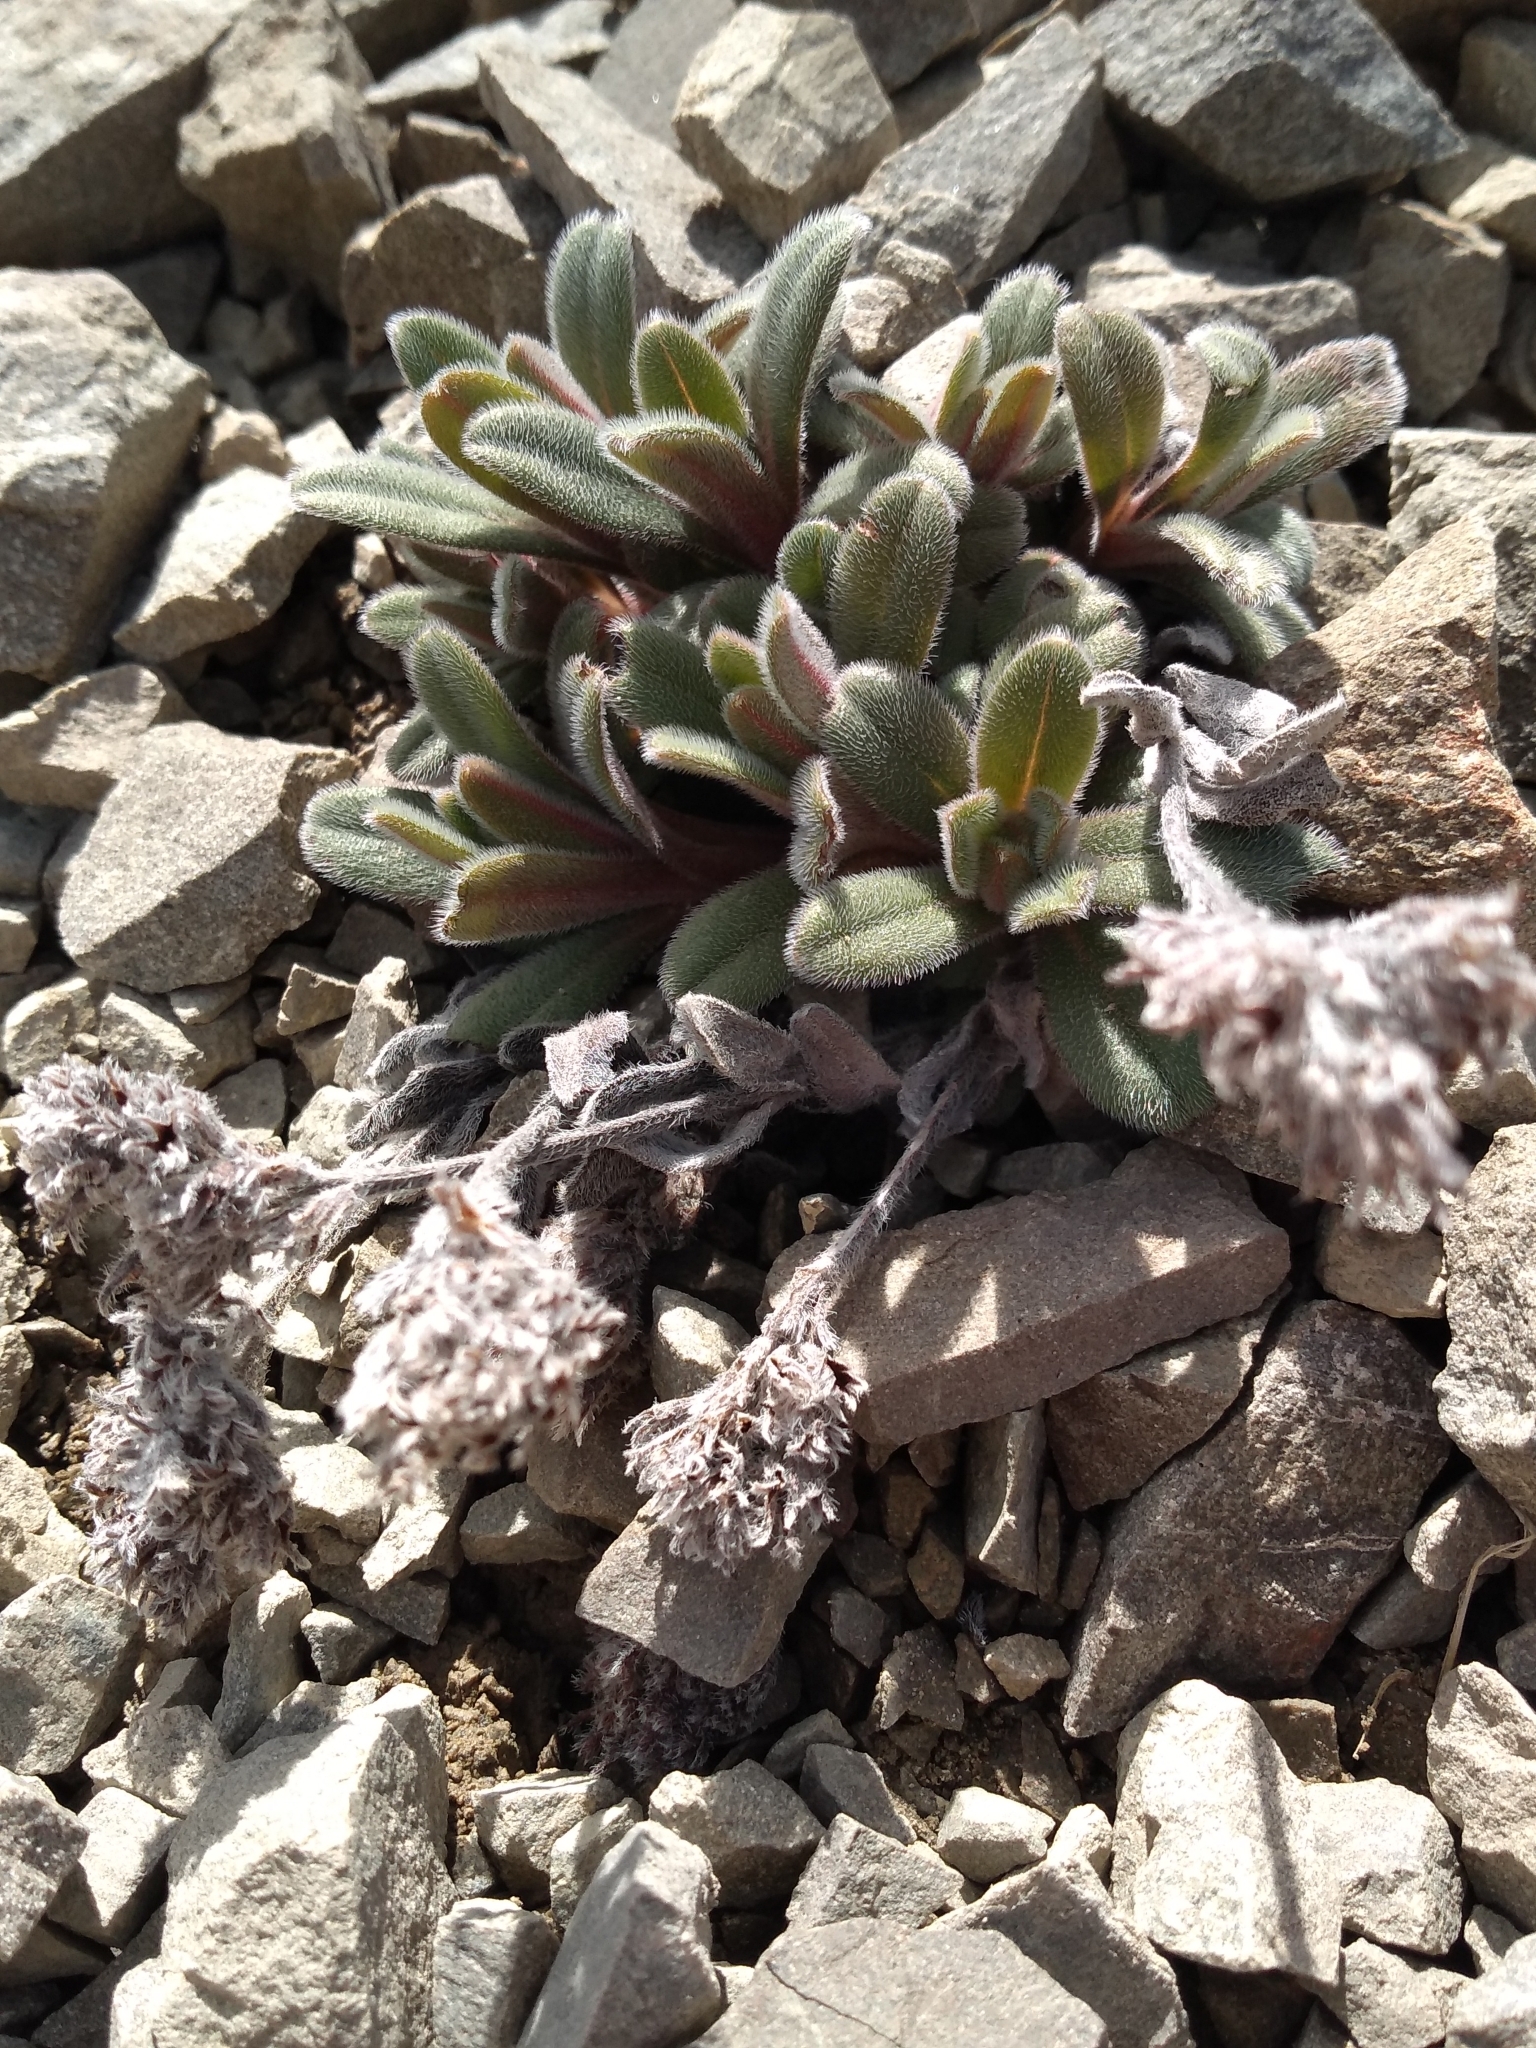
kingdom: Plantae
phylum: Tracheophyta
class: Magnoliopsida
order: Boraginales
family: Boraginaceae
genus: Myosotis
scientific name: Myosotis traversii
